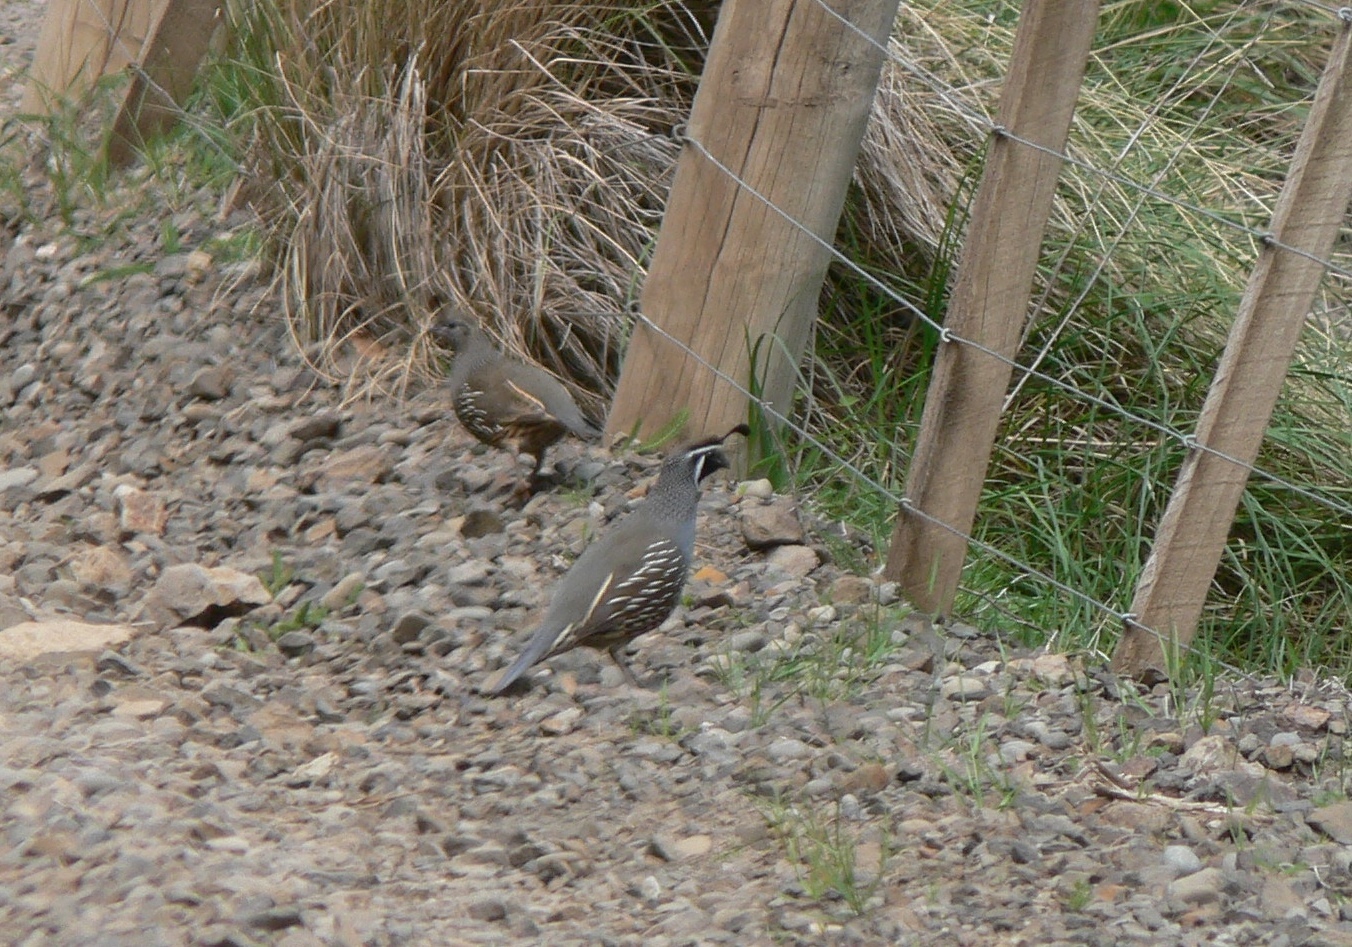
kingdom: Animalia
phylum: Chordata
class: Aves
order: Galliformes
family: Odontophoridae
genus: Callipepla
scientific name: Callipepla californica
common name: California quail
